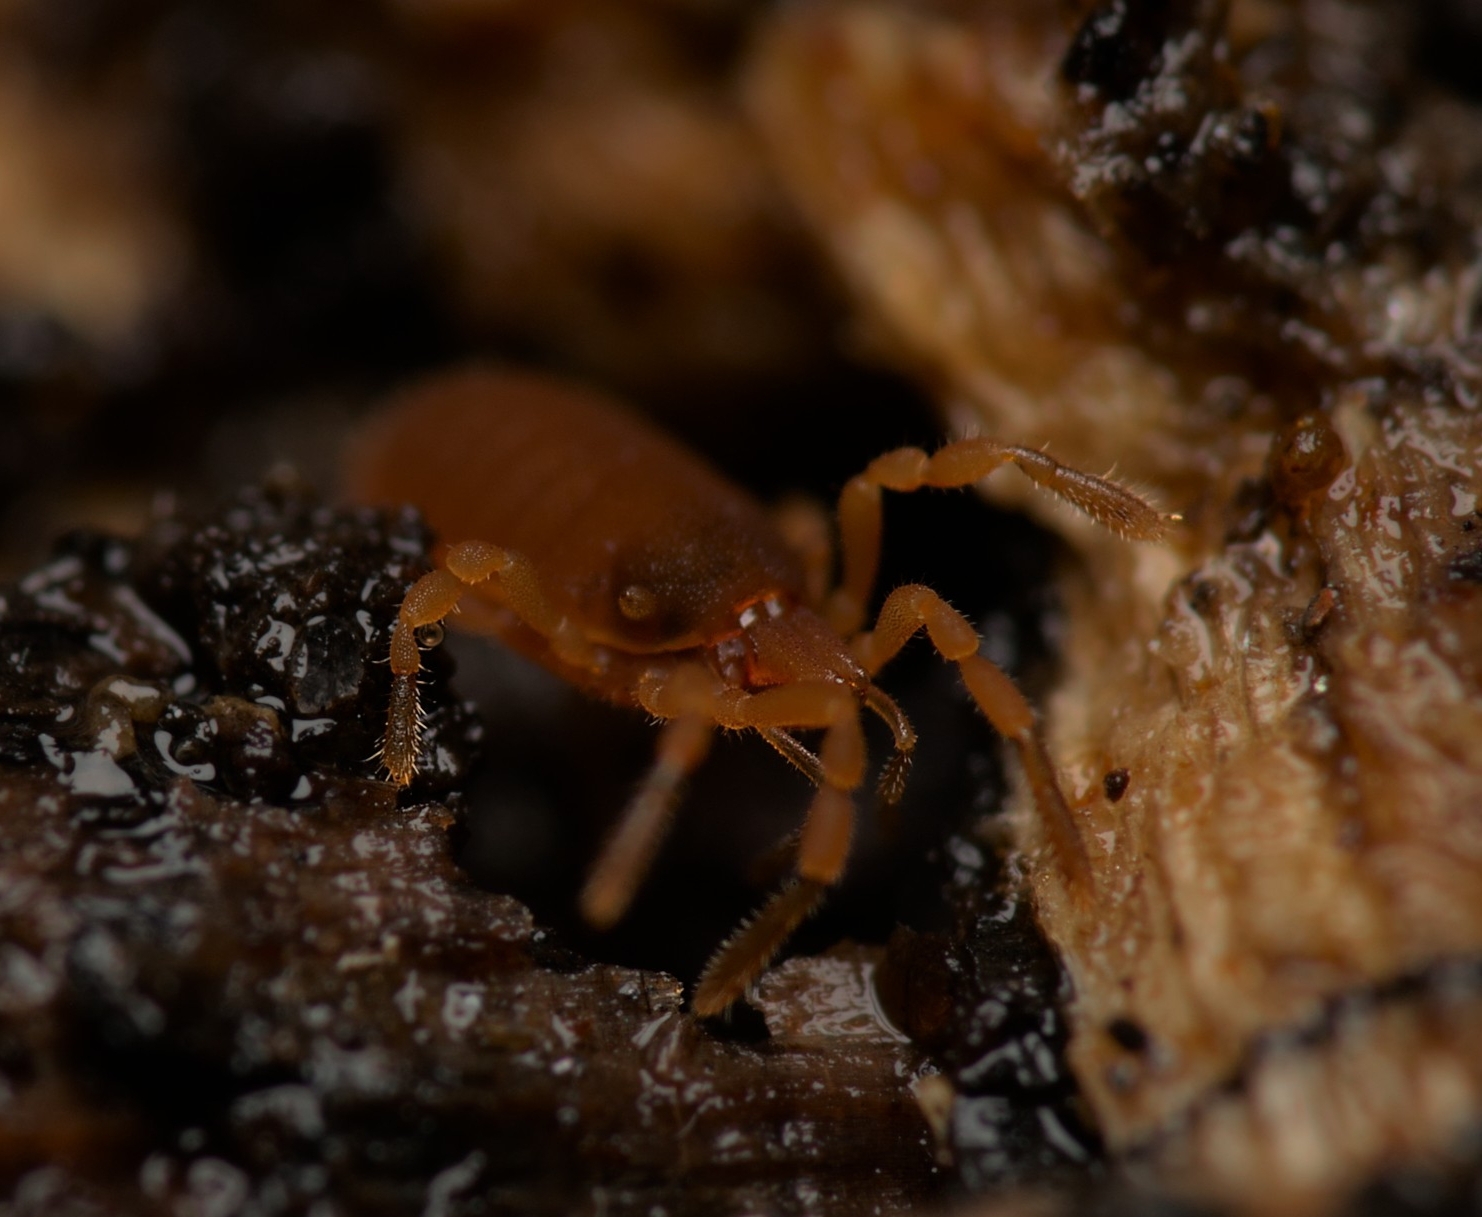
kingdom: Animalia
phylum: Arthropoda
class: Arachnida
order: Opiliones
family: Sironidae
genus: Siro
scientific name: Siro rubens
